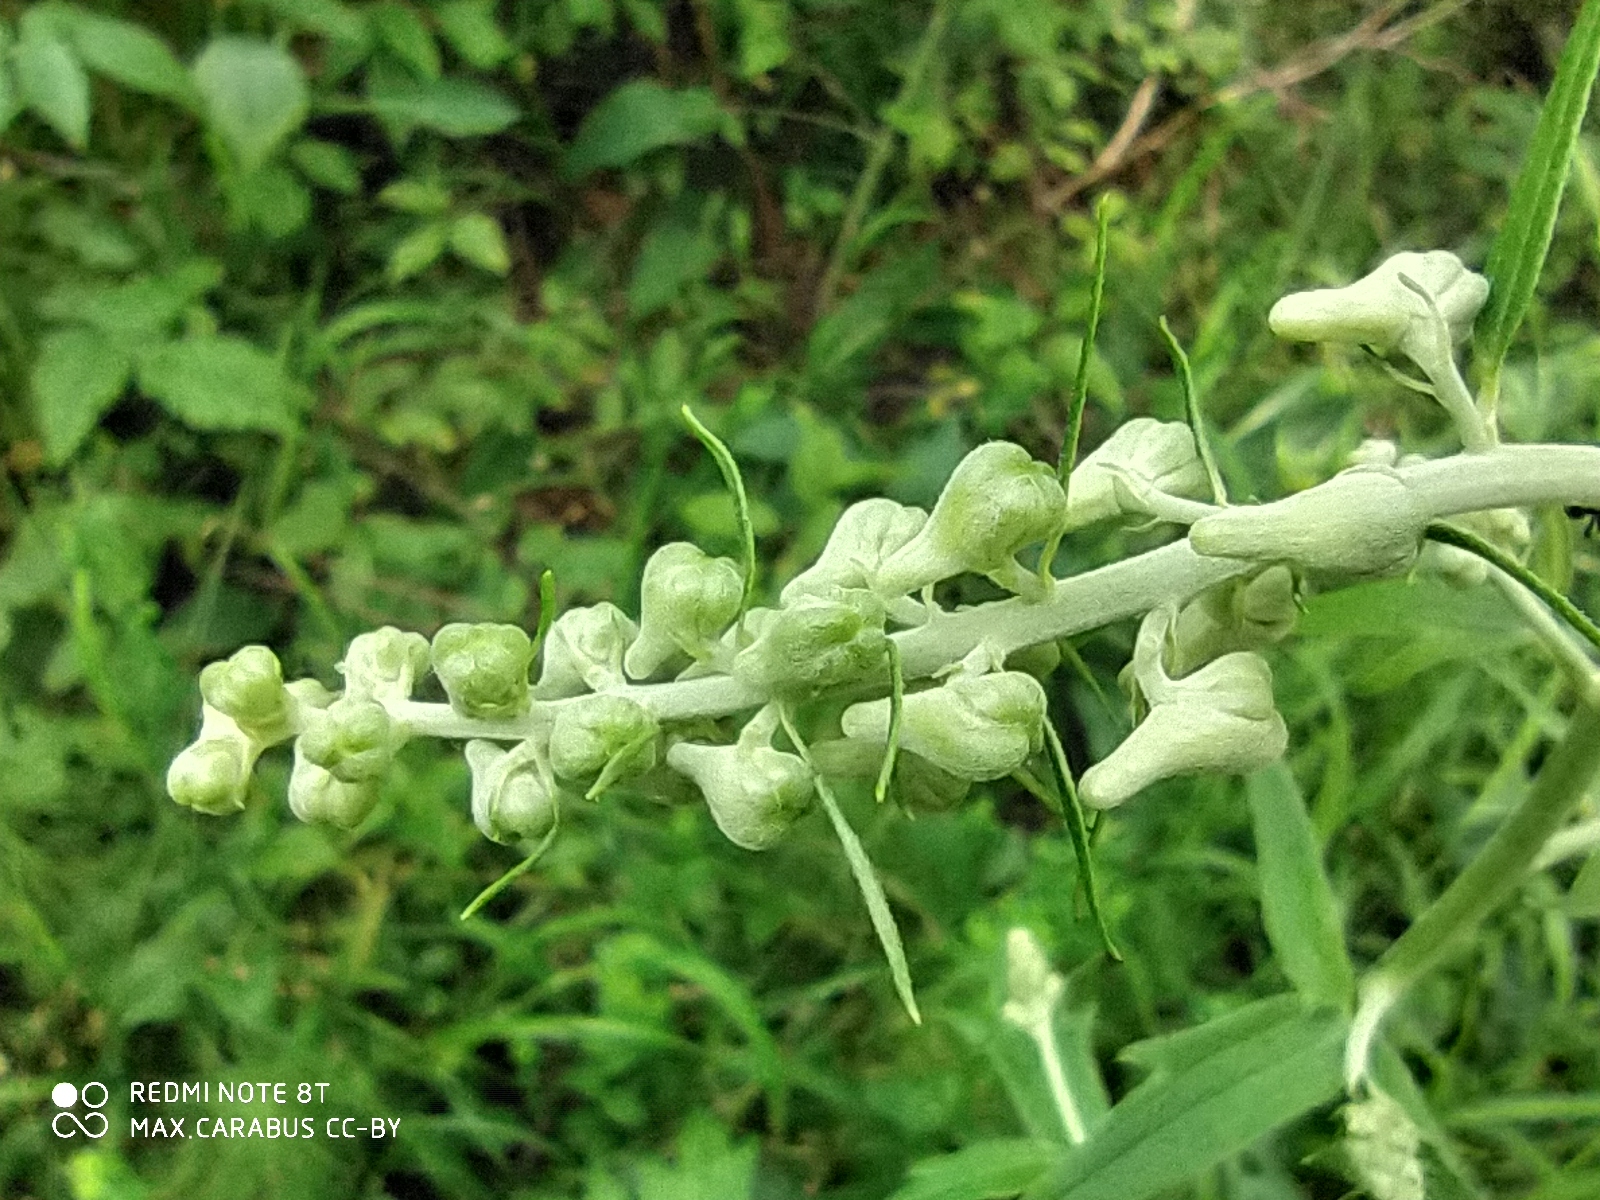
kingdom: Plantae
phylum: Tracheophyta
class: Magnoliopsida
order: Ranunculales
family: Ranunculaceae
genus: Aconitum
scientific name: Aconitum lasiostomum
